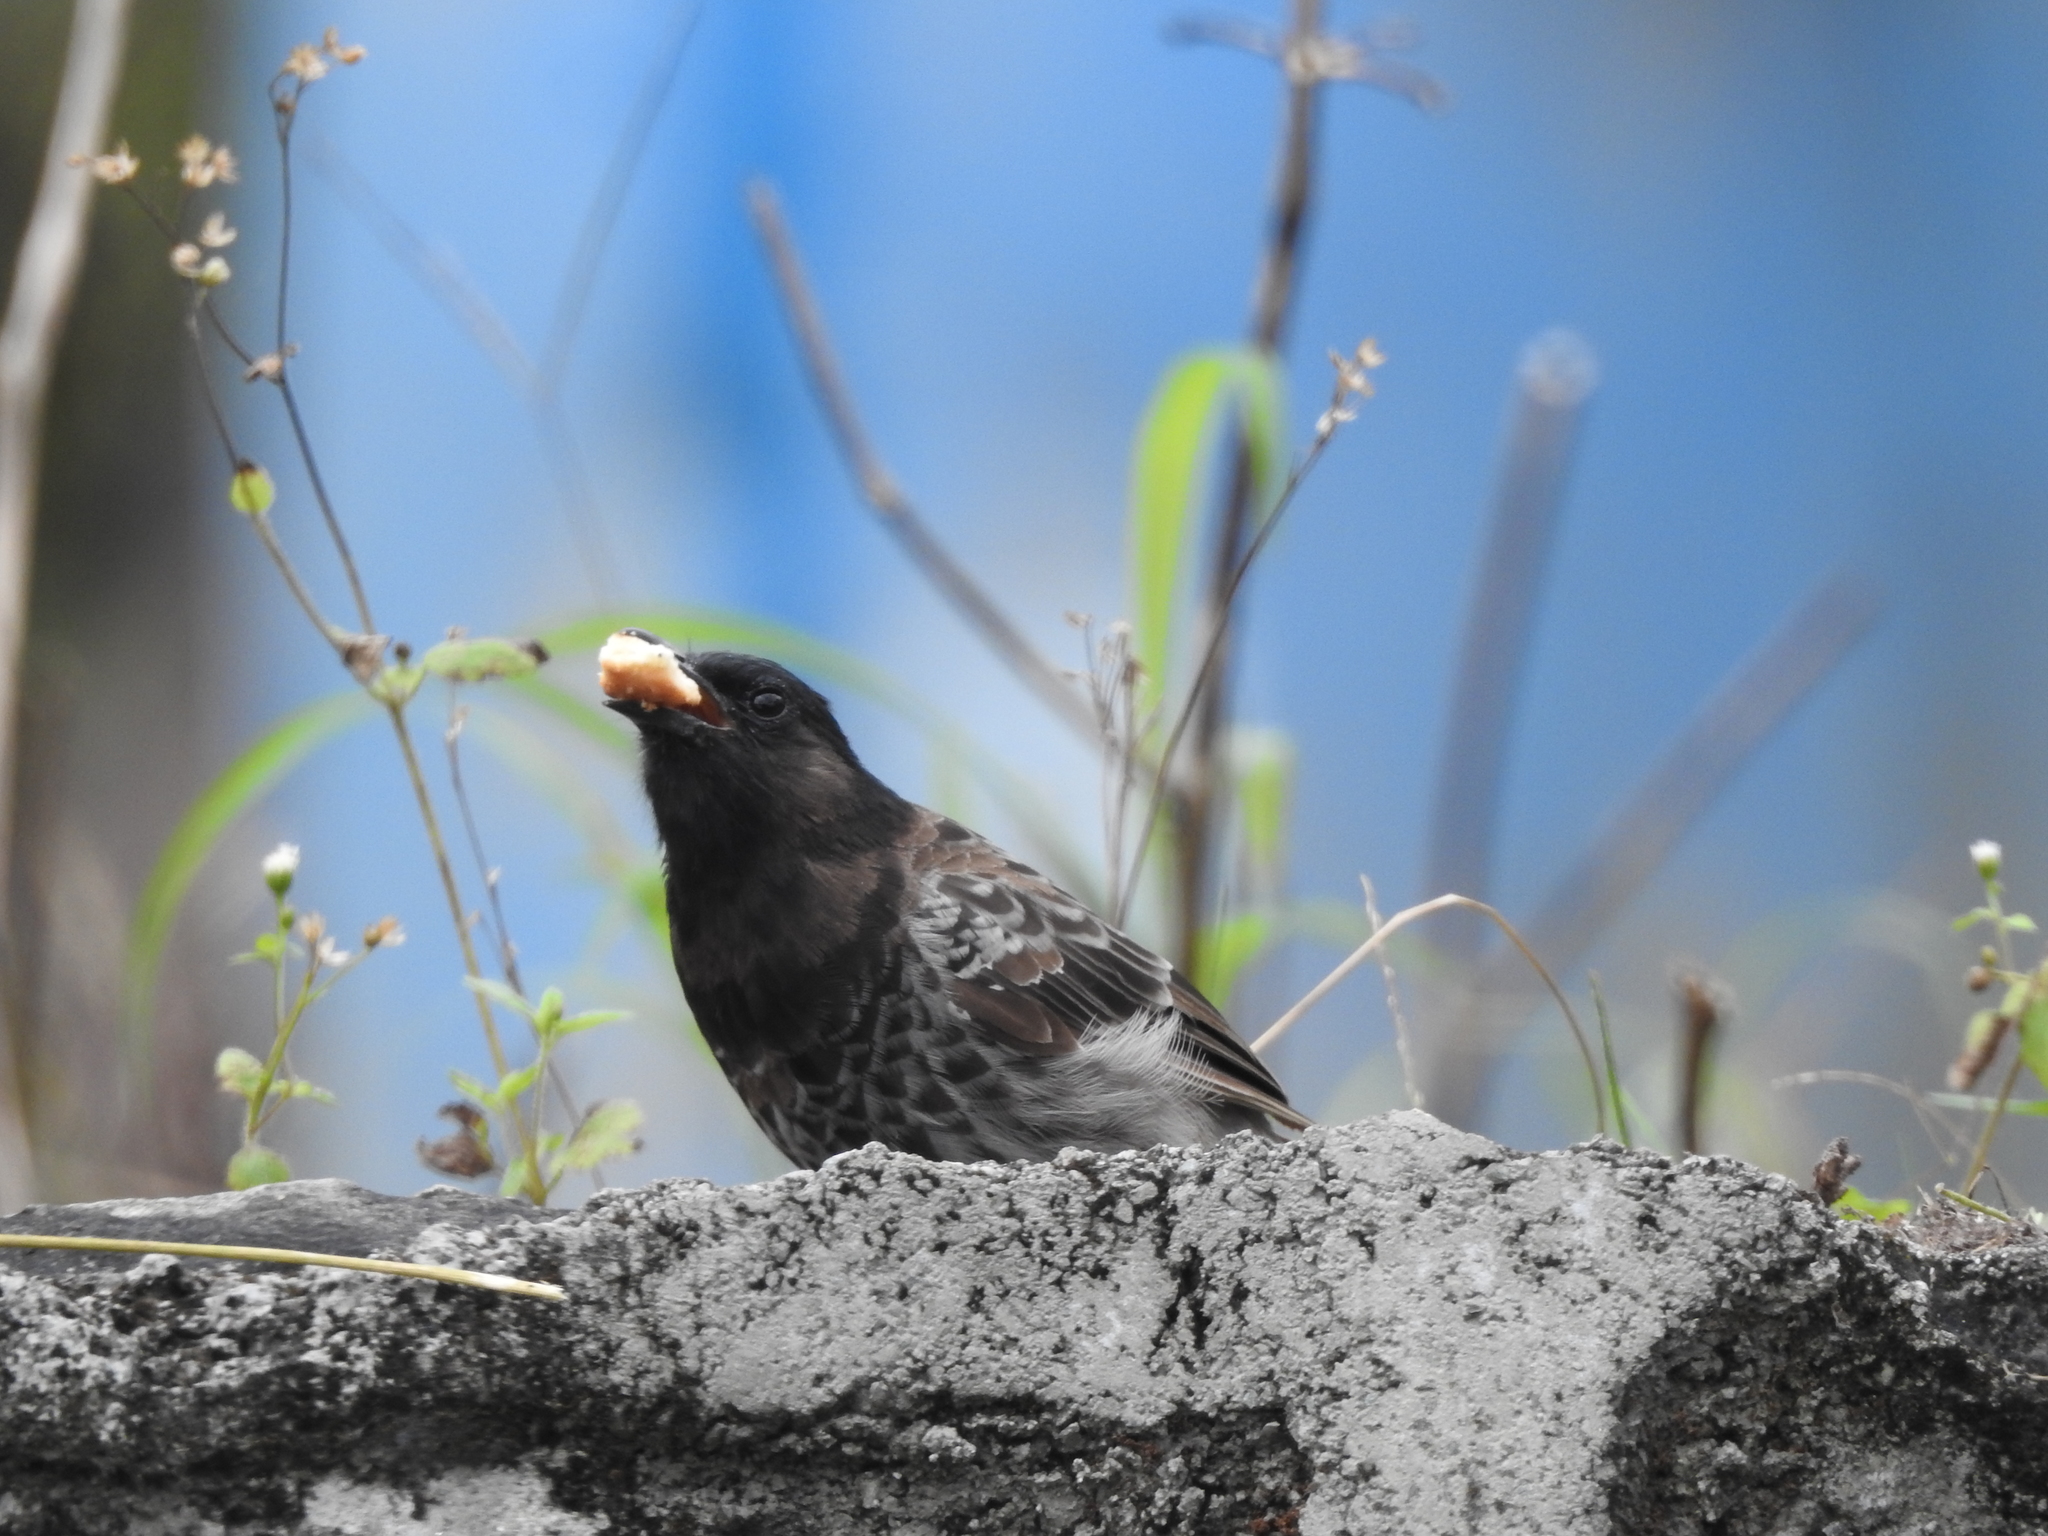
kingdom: Animalia
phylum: Chordata
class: Aves
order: Passeriformes
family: Pycnonotidae
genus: Pycnonotus
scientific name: Pycnonotus cafer
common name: Red-vented bulbul
